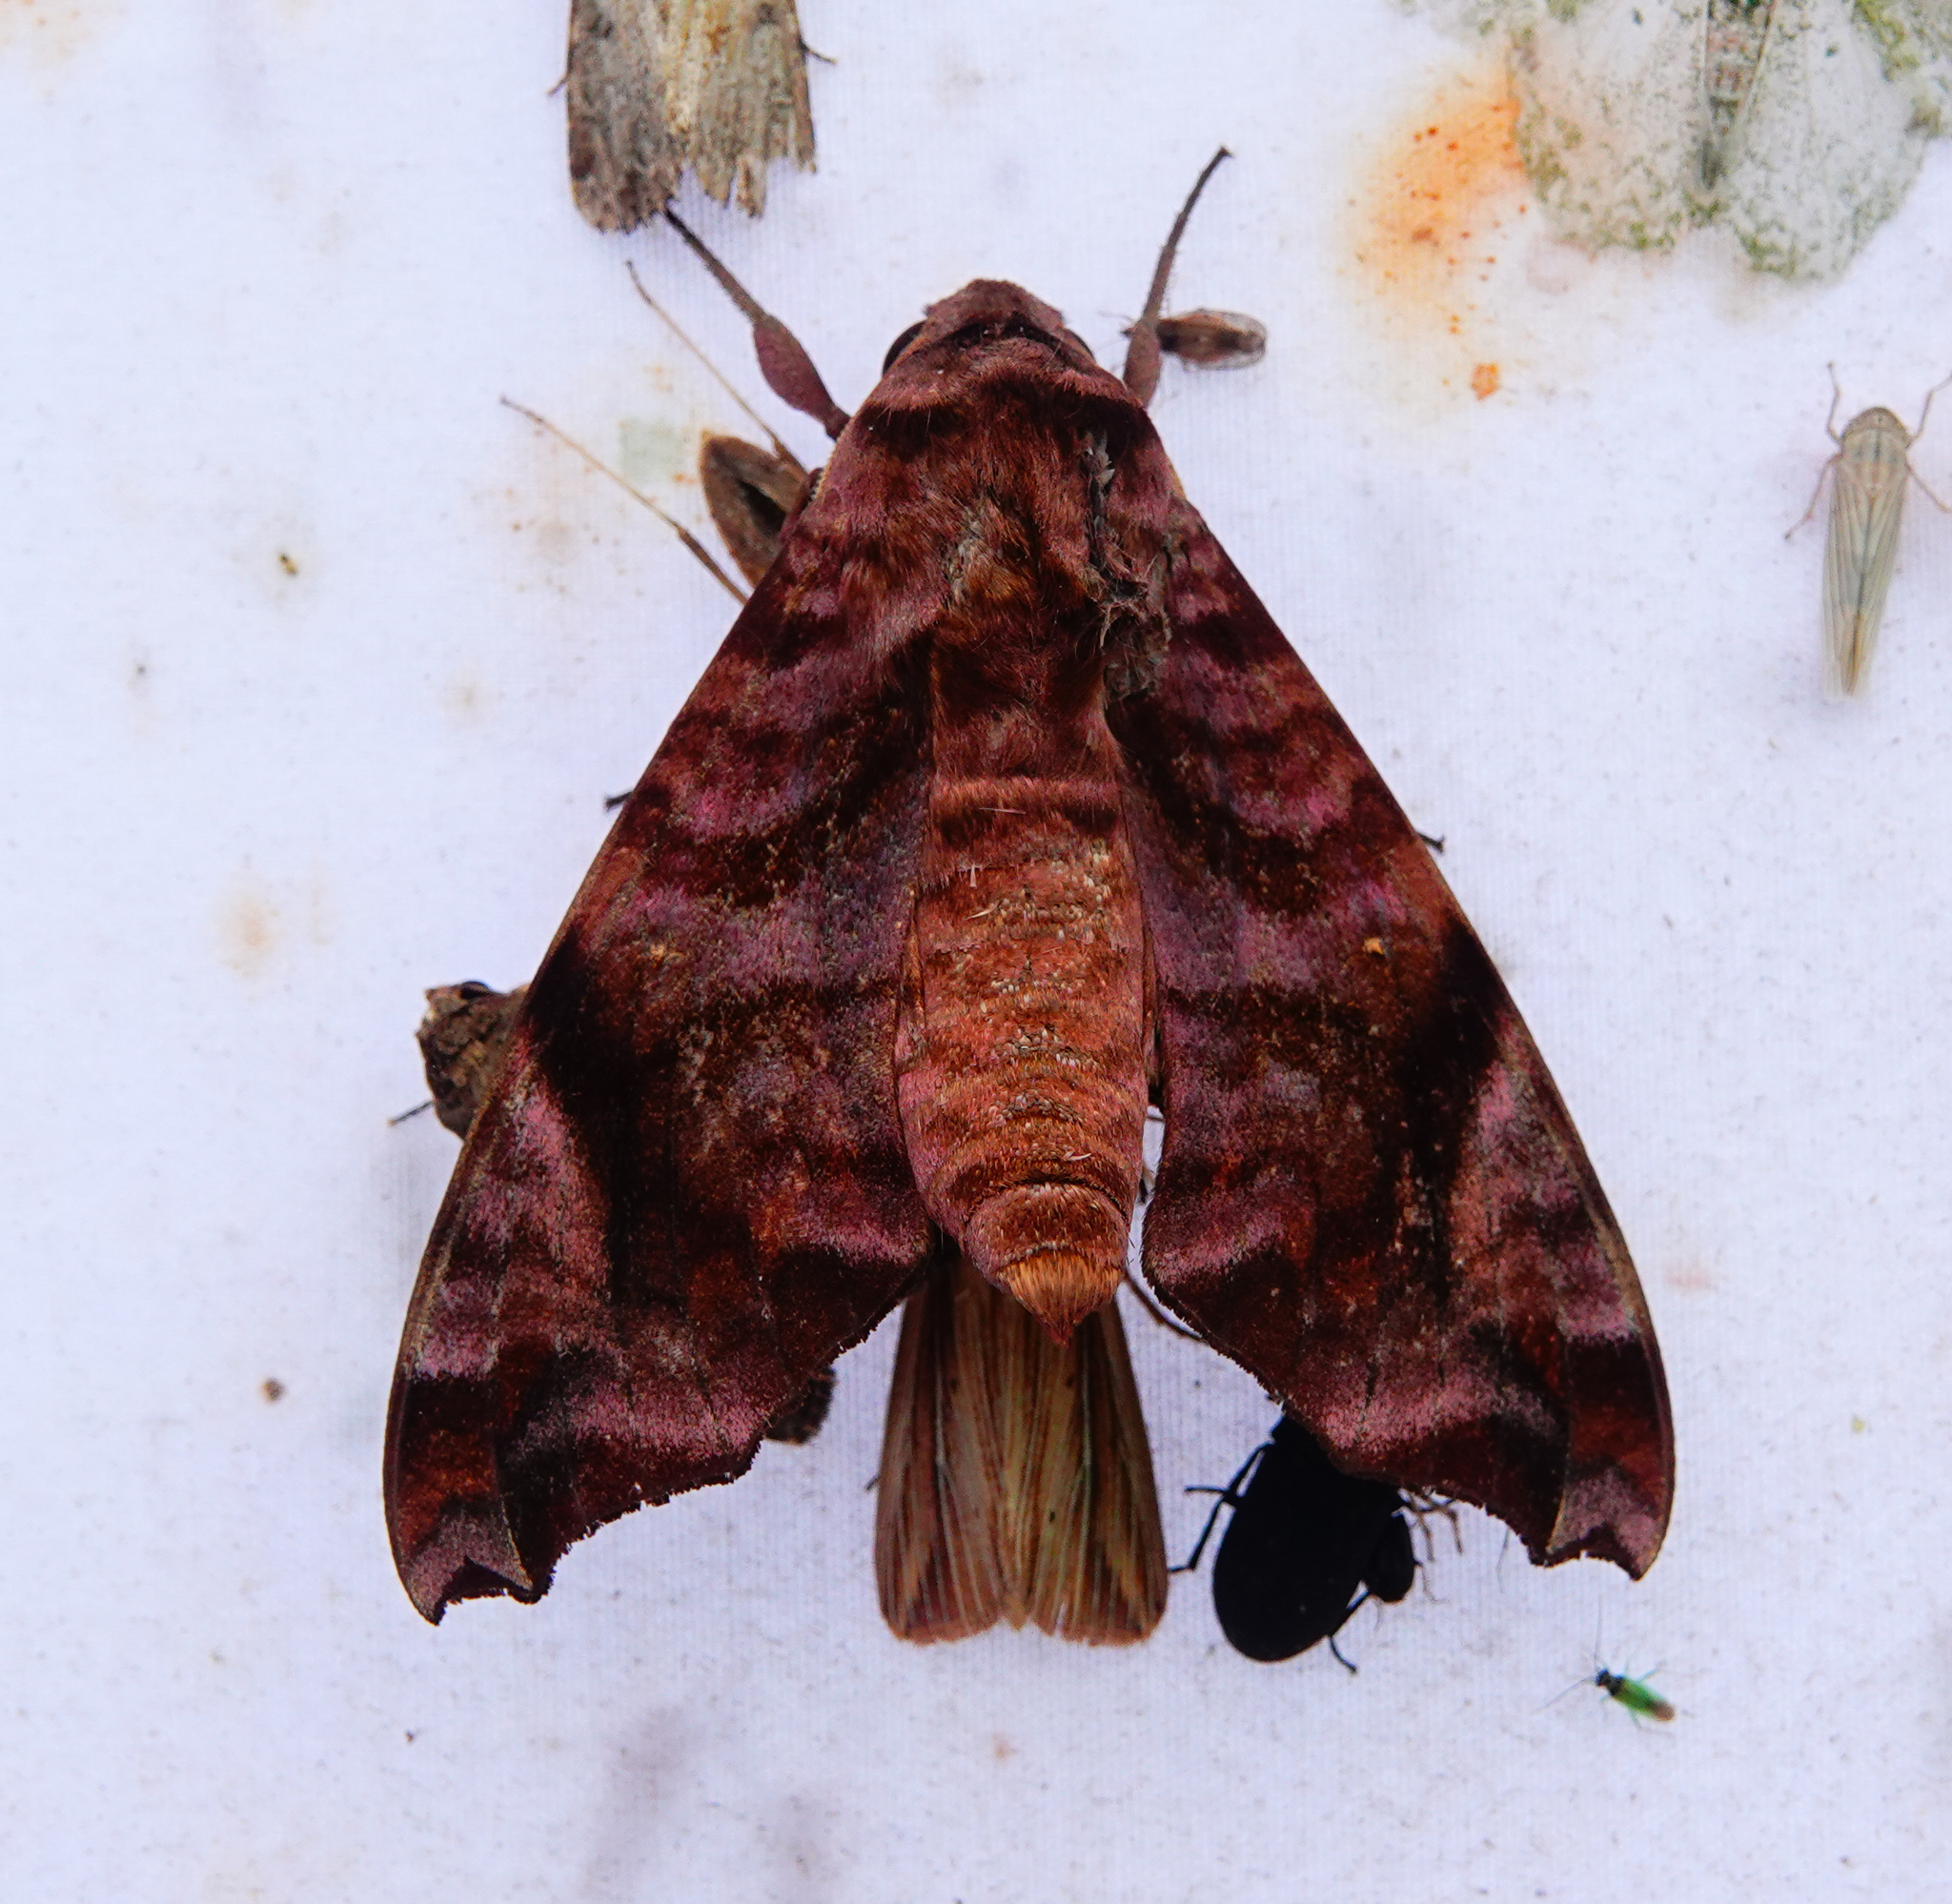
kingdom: Animalia
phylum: Arthropoda
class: Insecta
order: Lepidoptera
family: Sphingidae
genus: Acosmeryx
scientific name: Acosmeryx anceus
